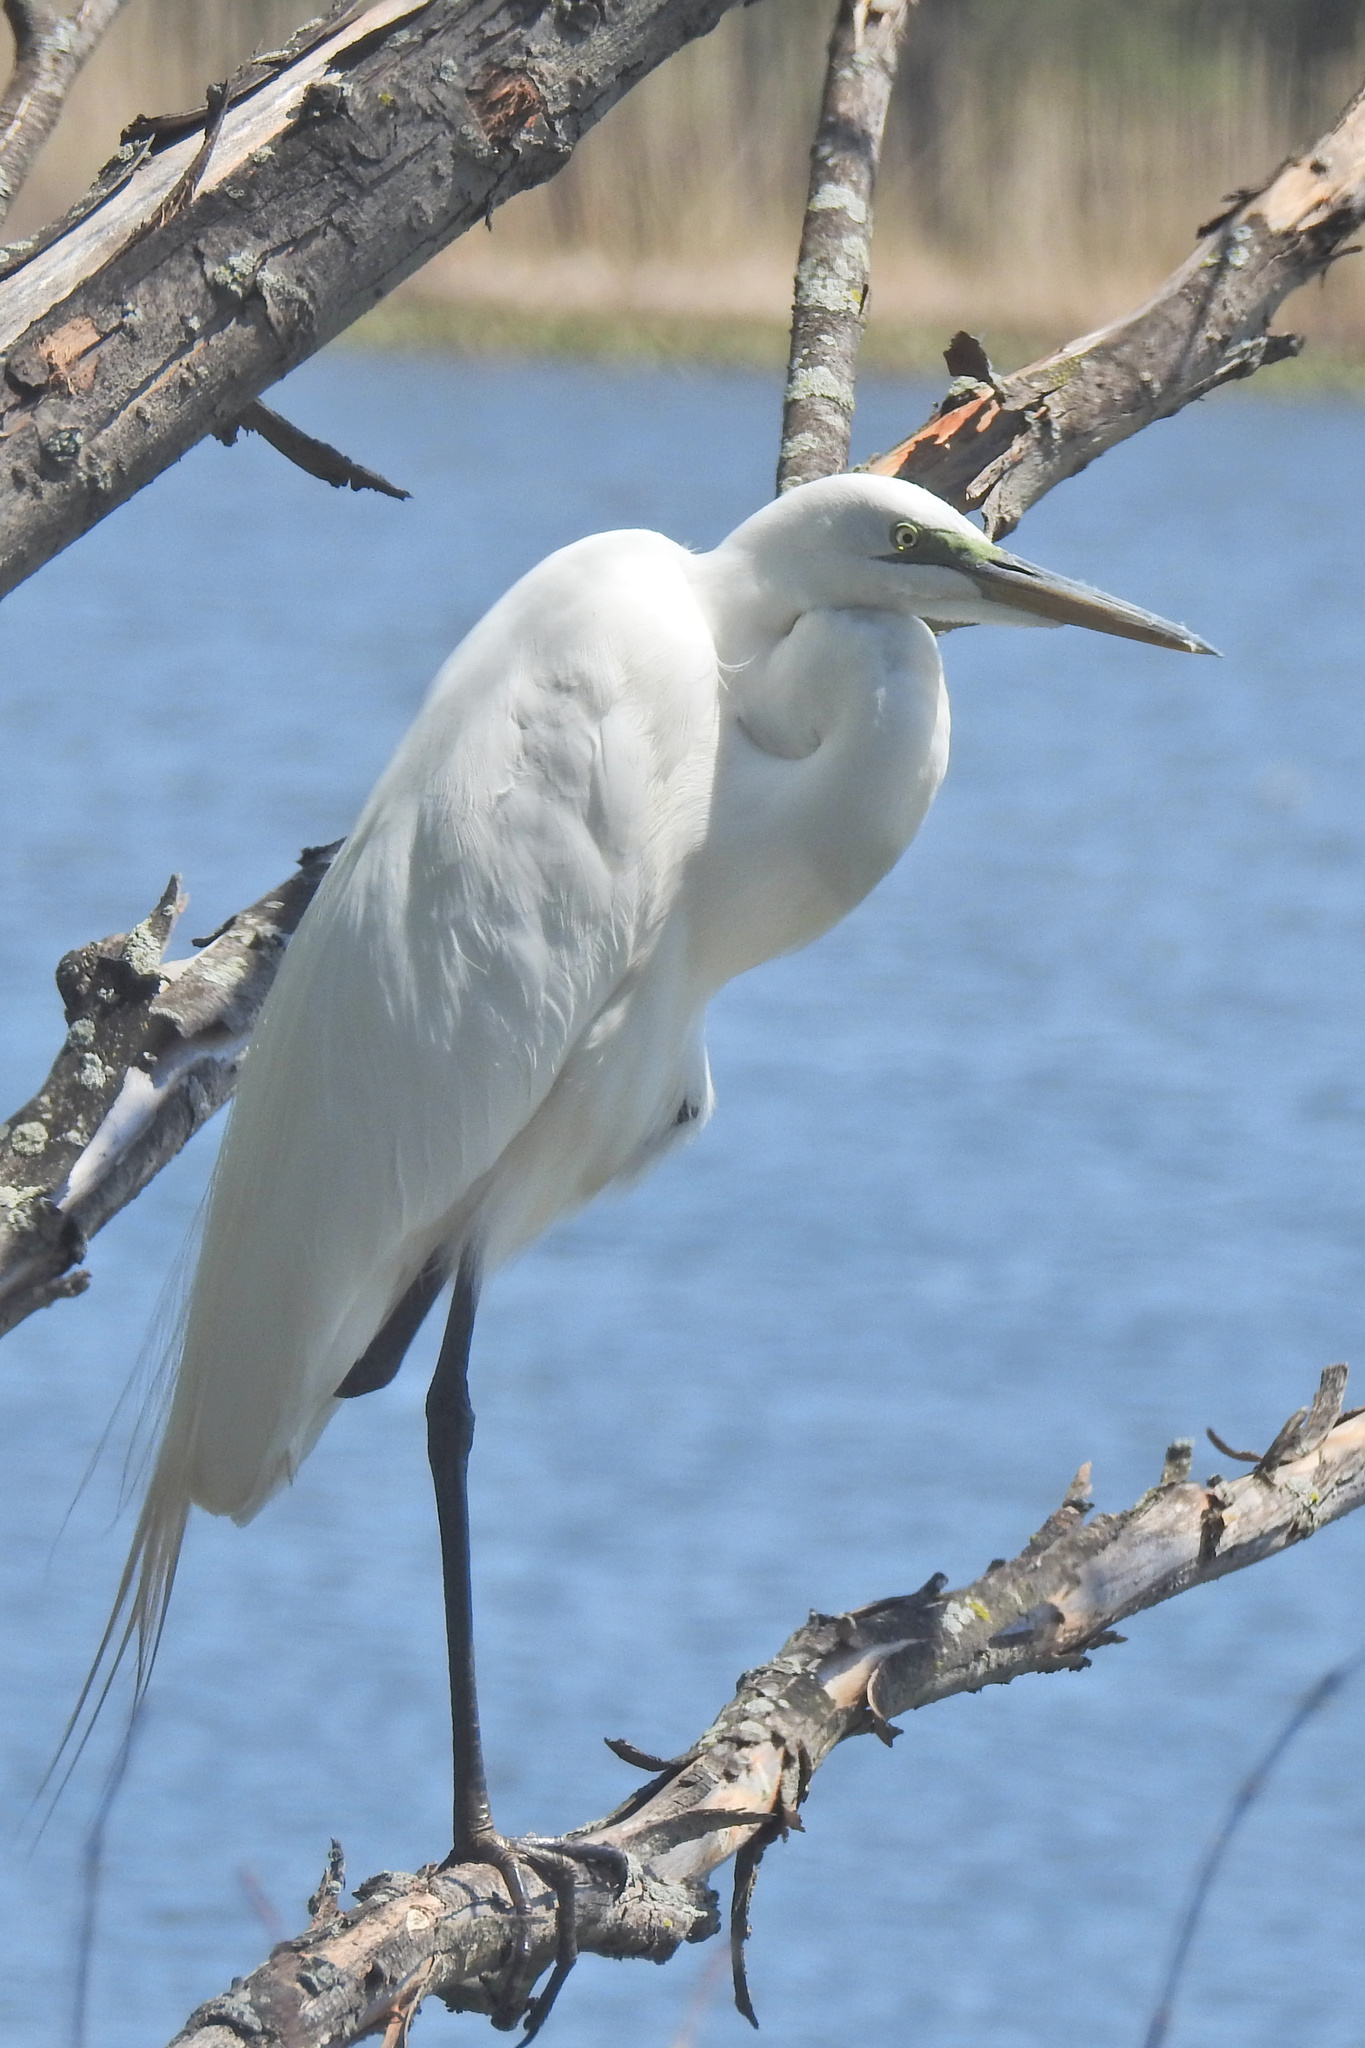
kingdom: Animalia
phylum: Chordata
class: Aves
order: Pelecaniformes
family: Ardeidae
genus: Ardea
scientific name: Ardea alba
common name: Great egret
